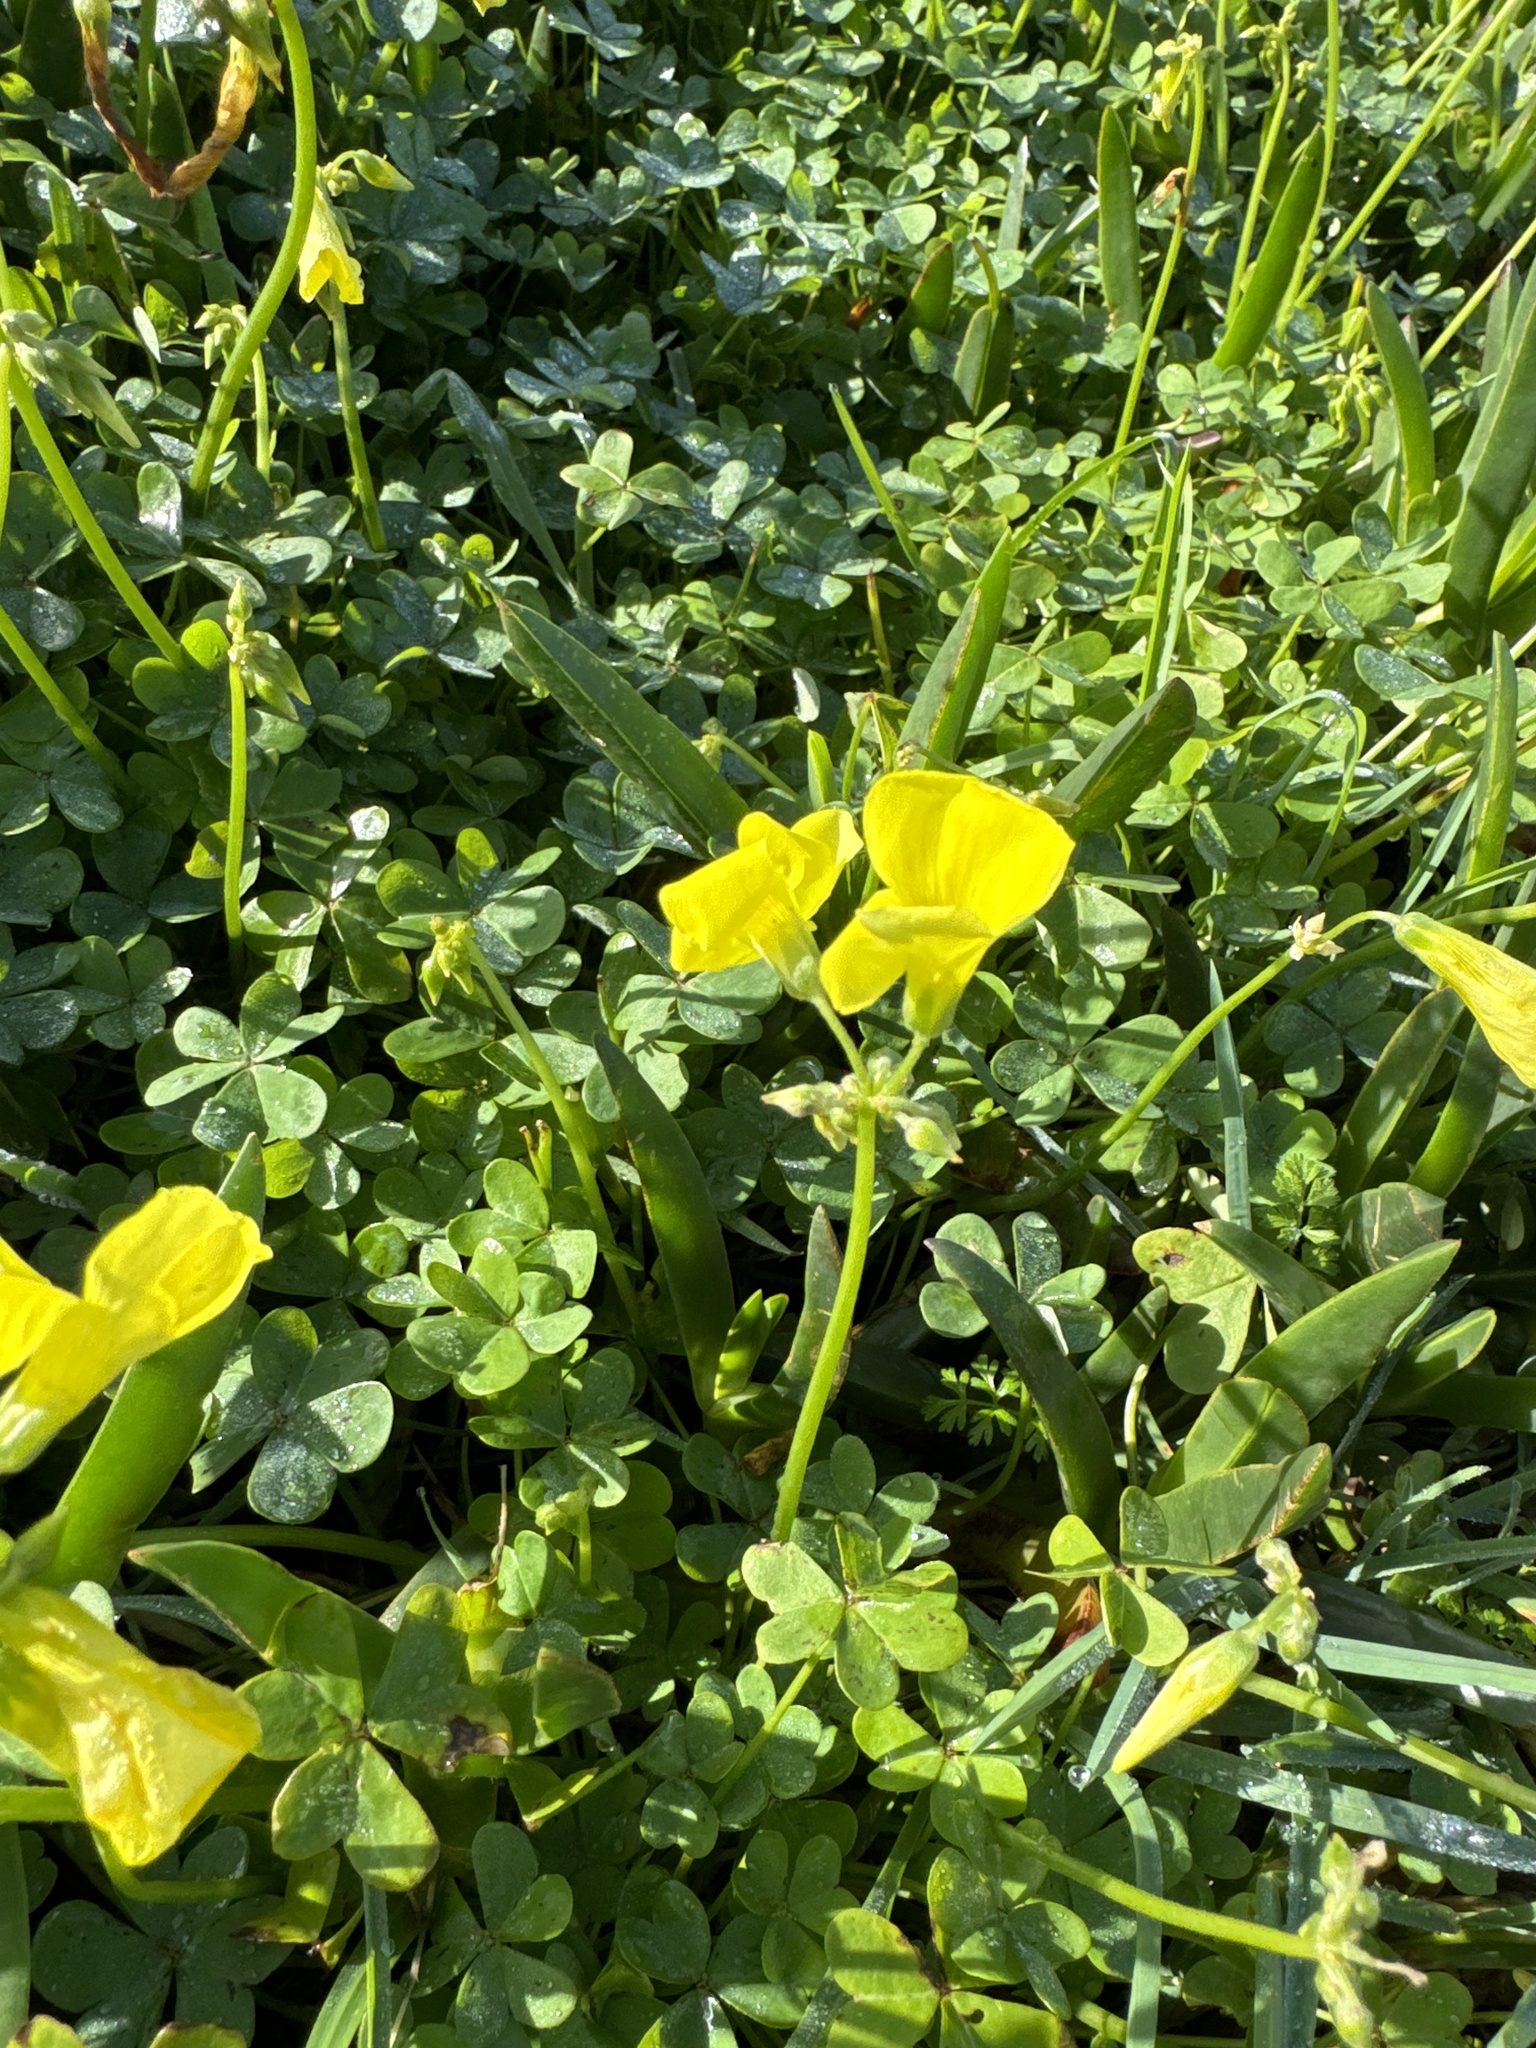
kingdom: Plantae
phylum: Tracheophyta
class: Magnoliopsida
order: Oxalidales
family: Oxalidaceae
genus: Oxalis
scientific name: Oxalis pes-caprae
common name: Bermuda-buttercup
